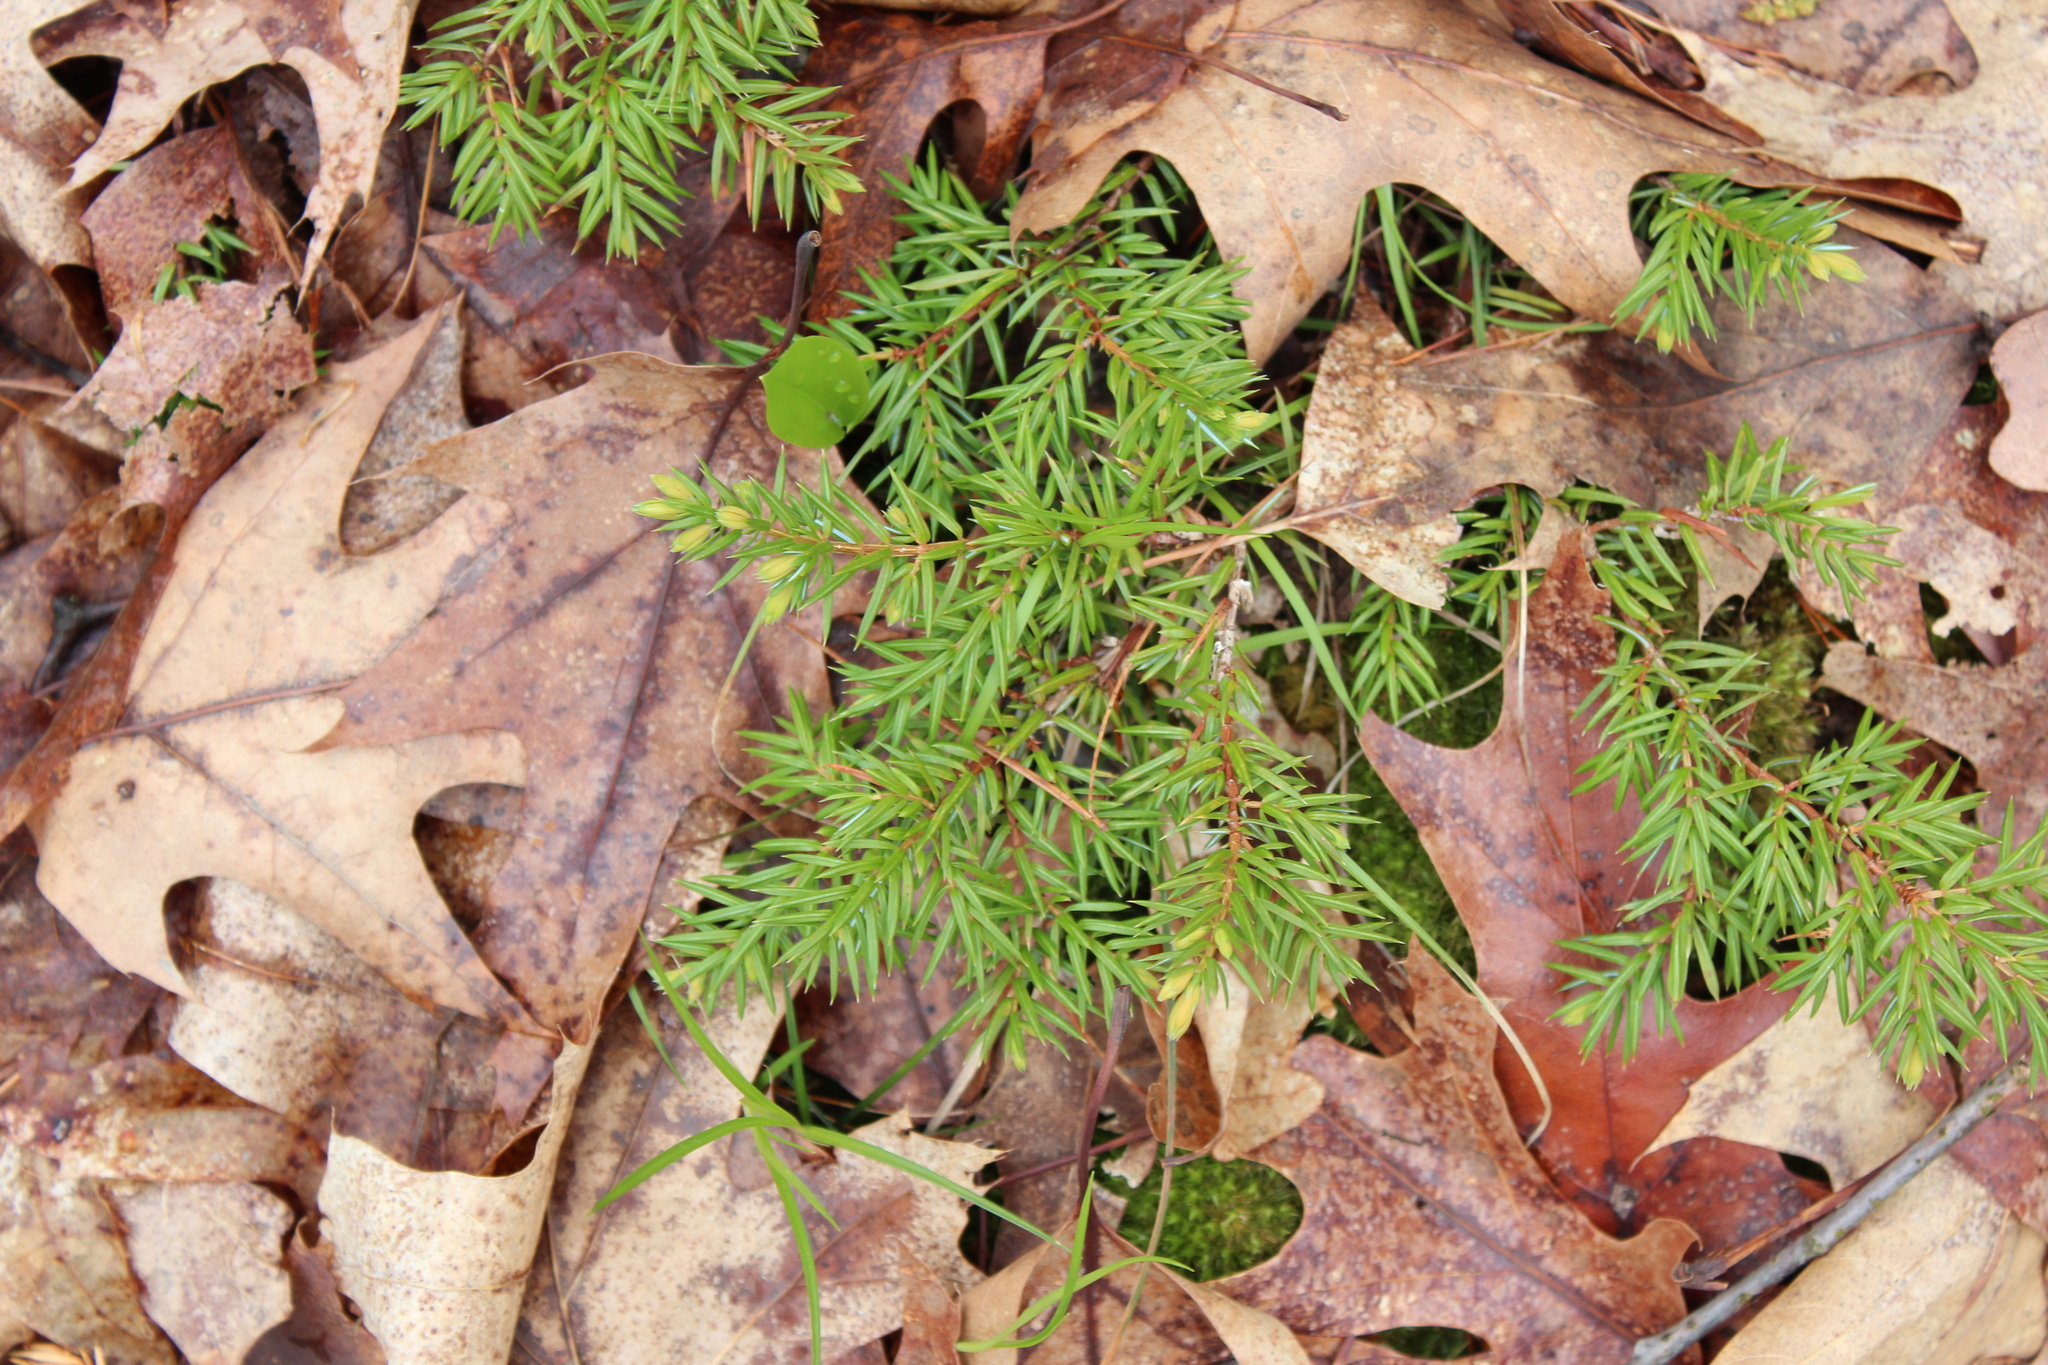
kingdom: Plantae
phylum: Tracheophyta
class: Pinopsida
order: Pinales
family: Cupressaceae
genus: Juniperus
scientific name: Juniperus communis
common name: Common juniper
